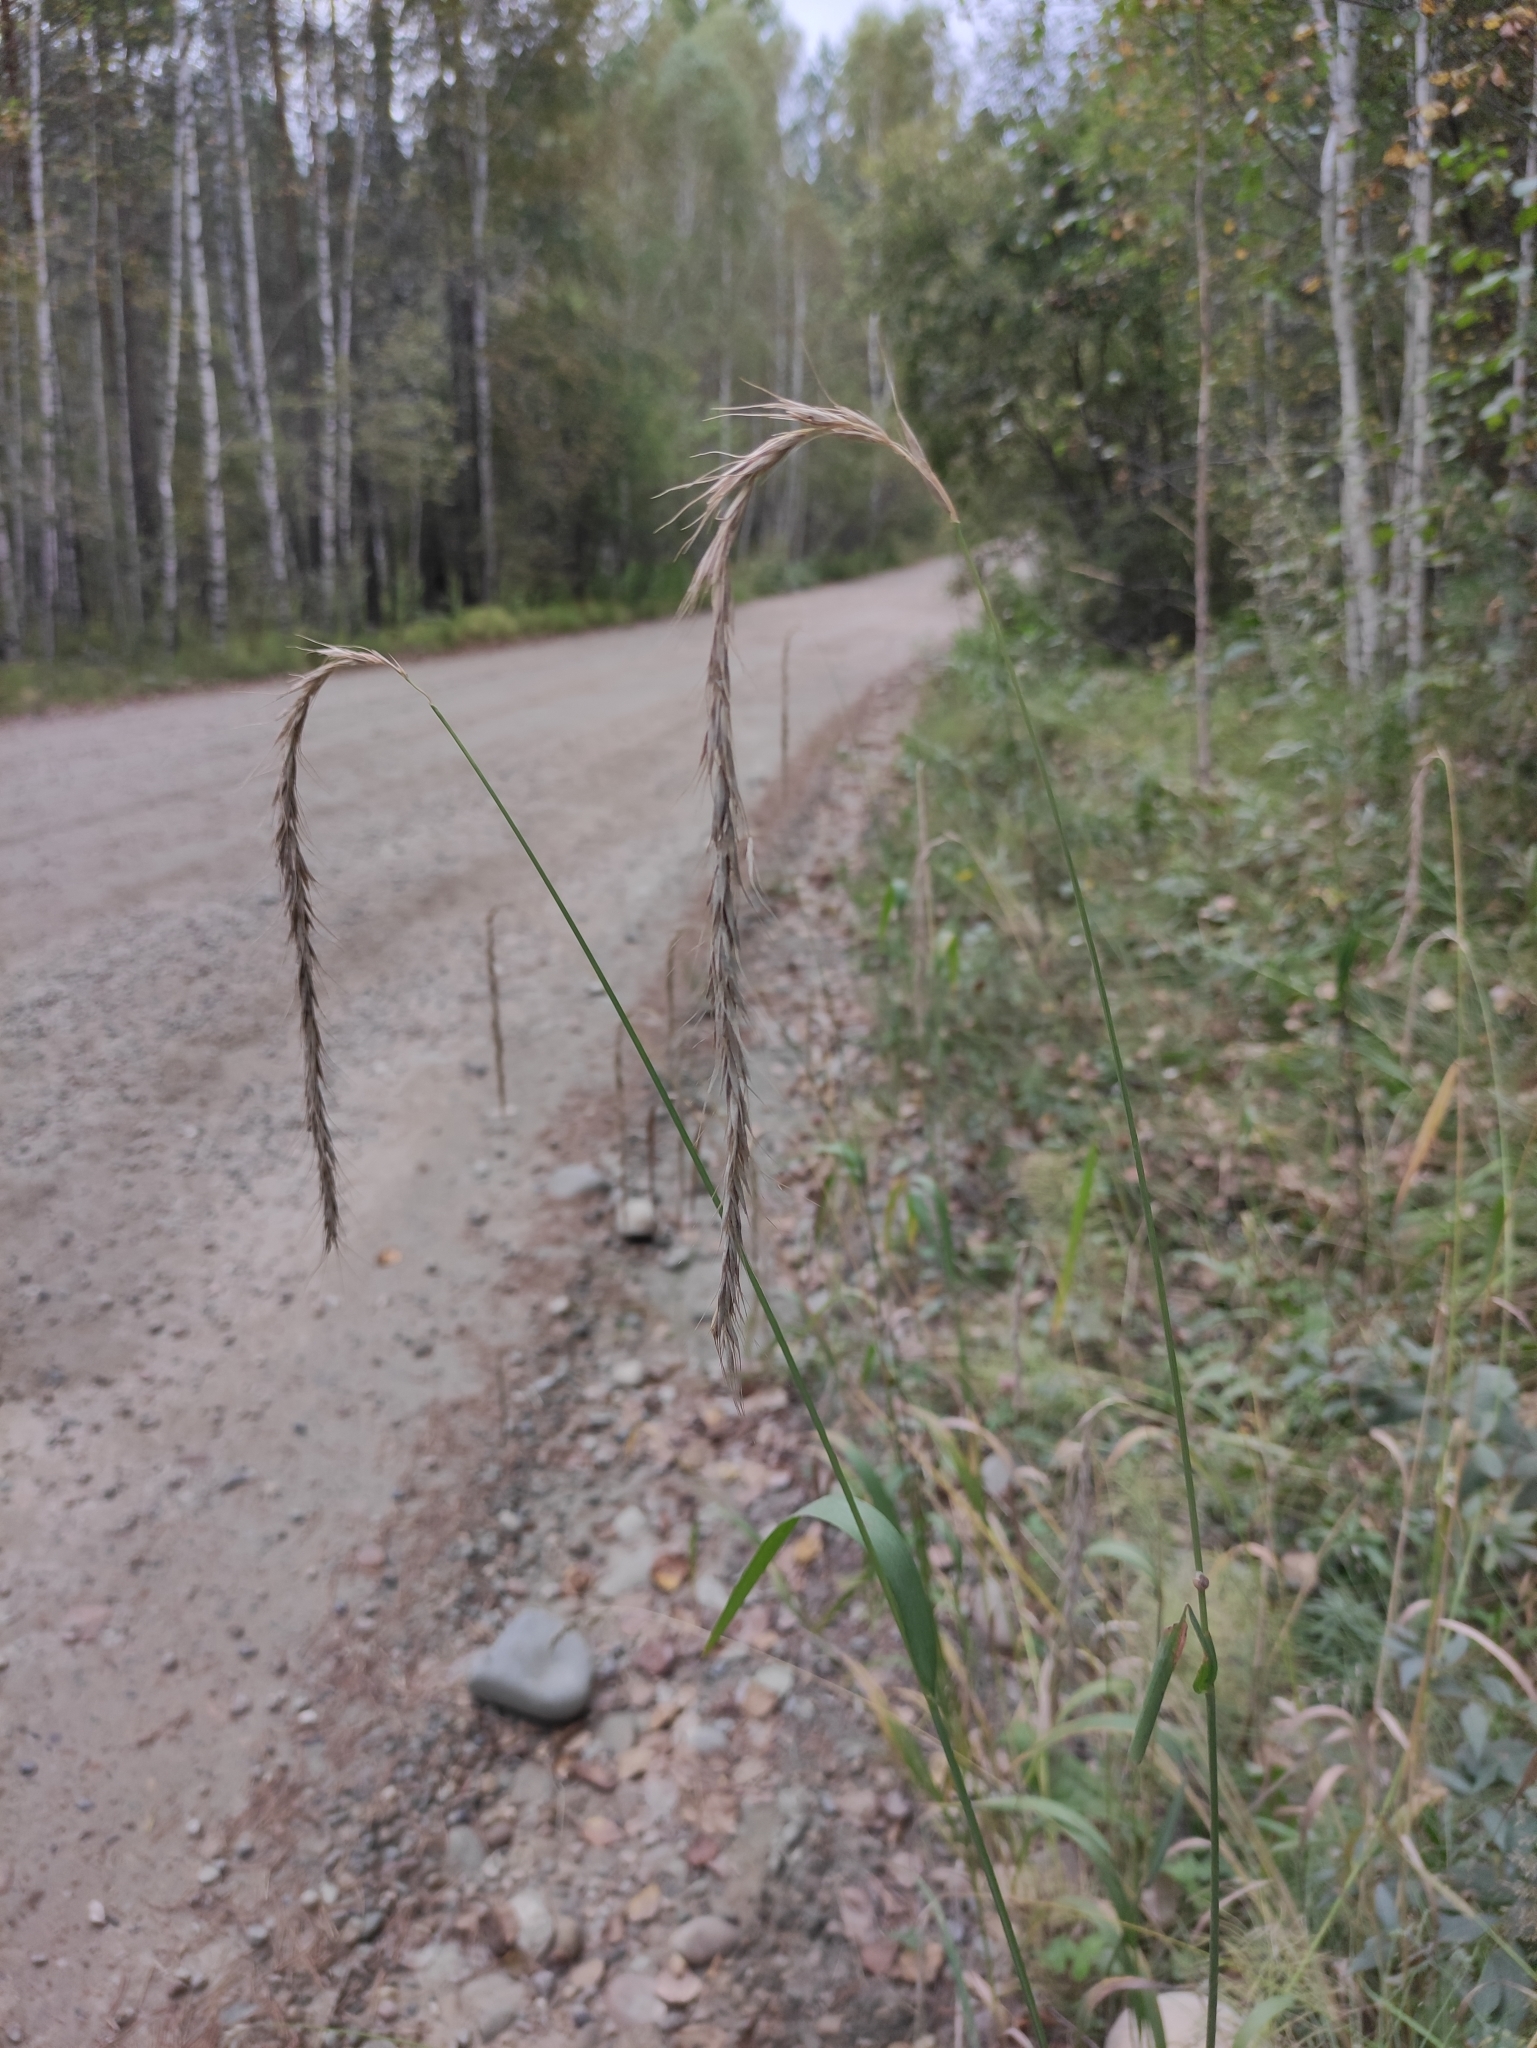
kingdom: Plantae
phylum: Tracheophyta
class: Liliopsida
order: Poales
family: Poaceae
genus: Elymus
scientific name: Elymus sibiricus
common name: Siberian wildrye
